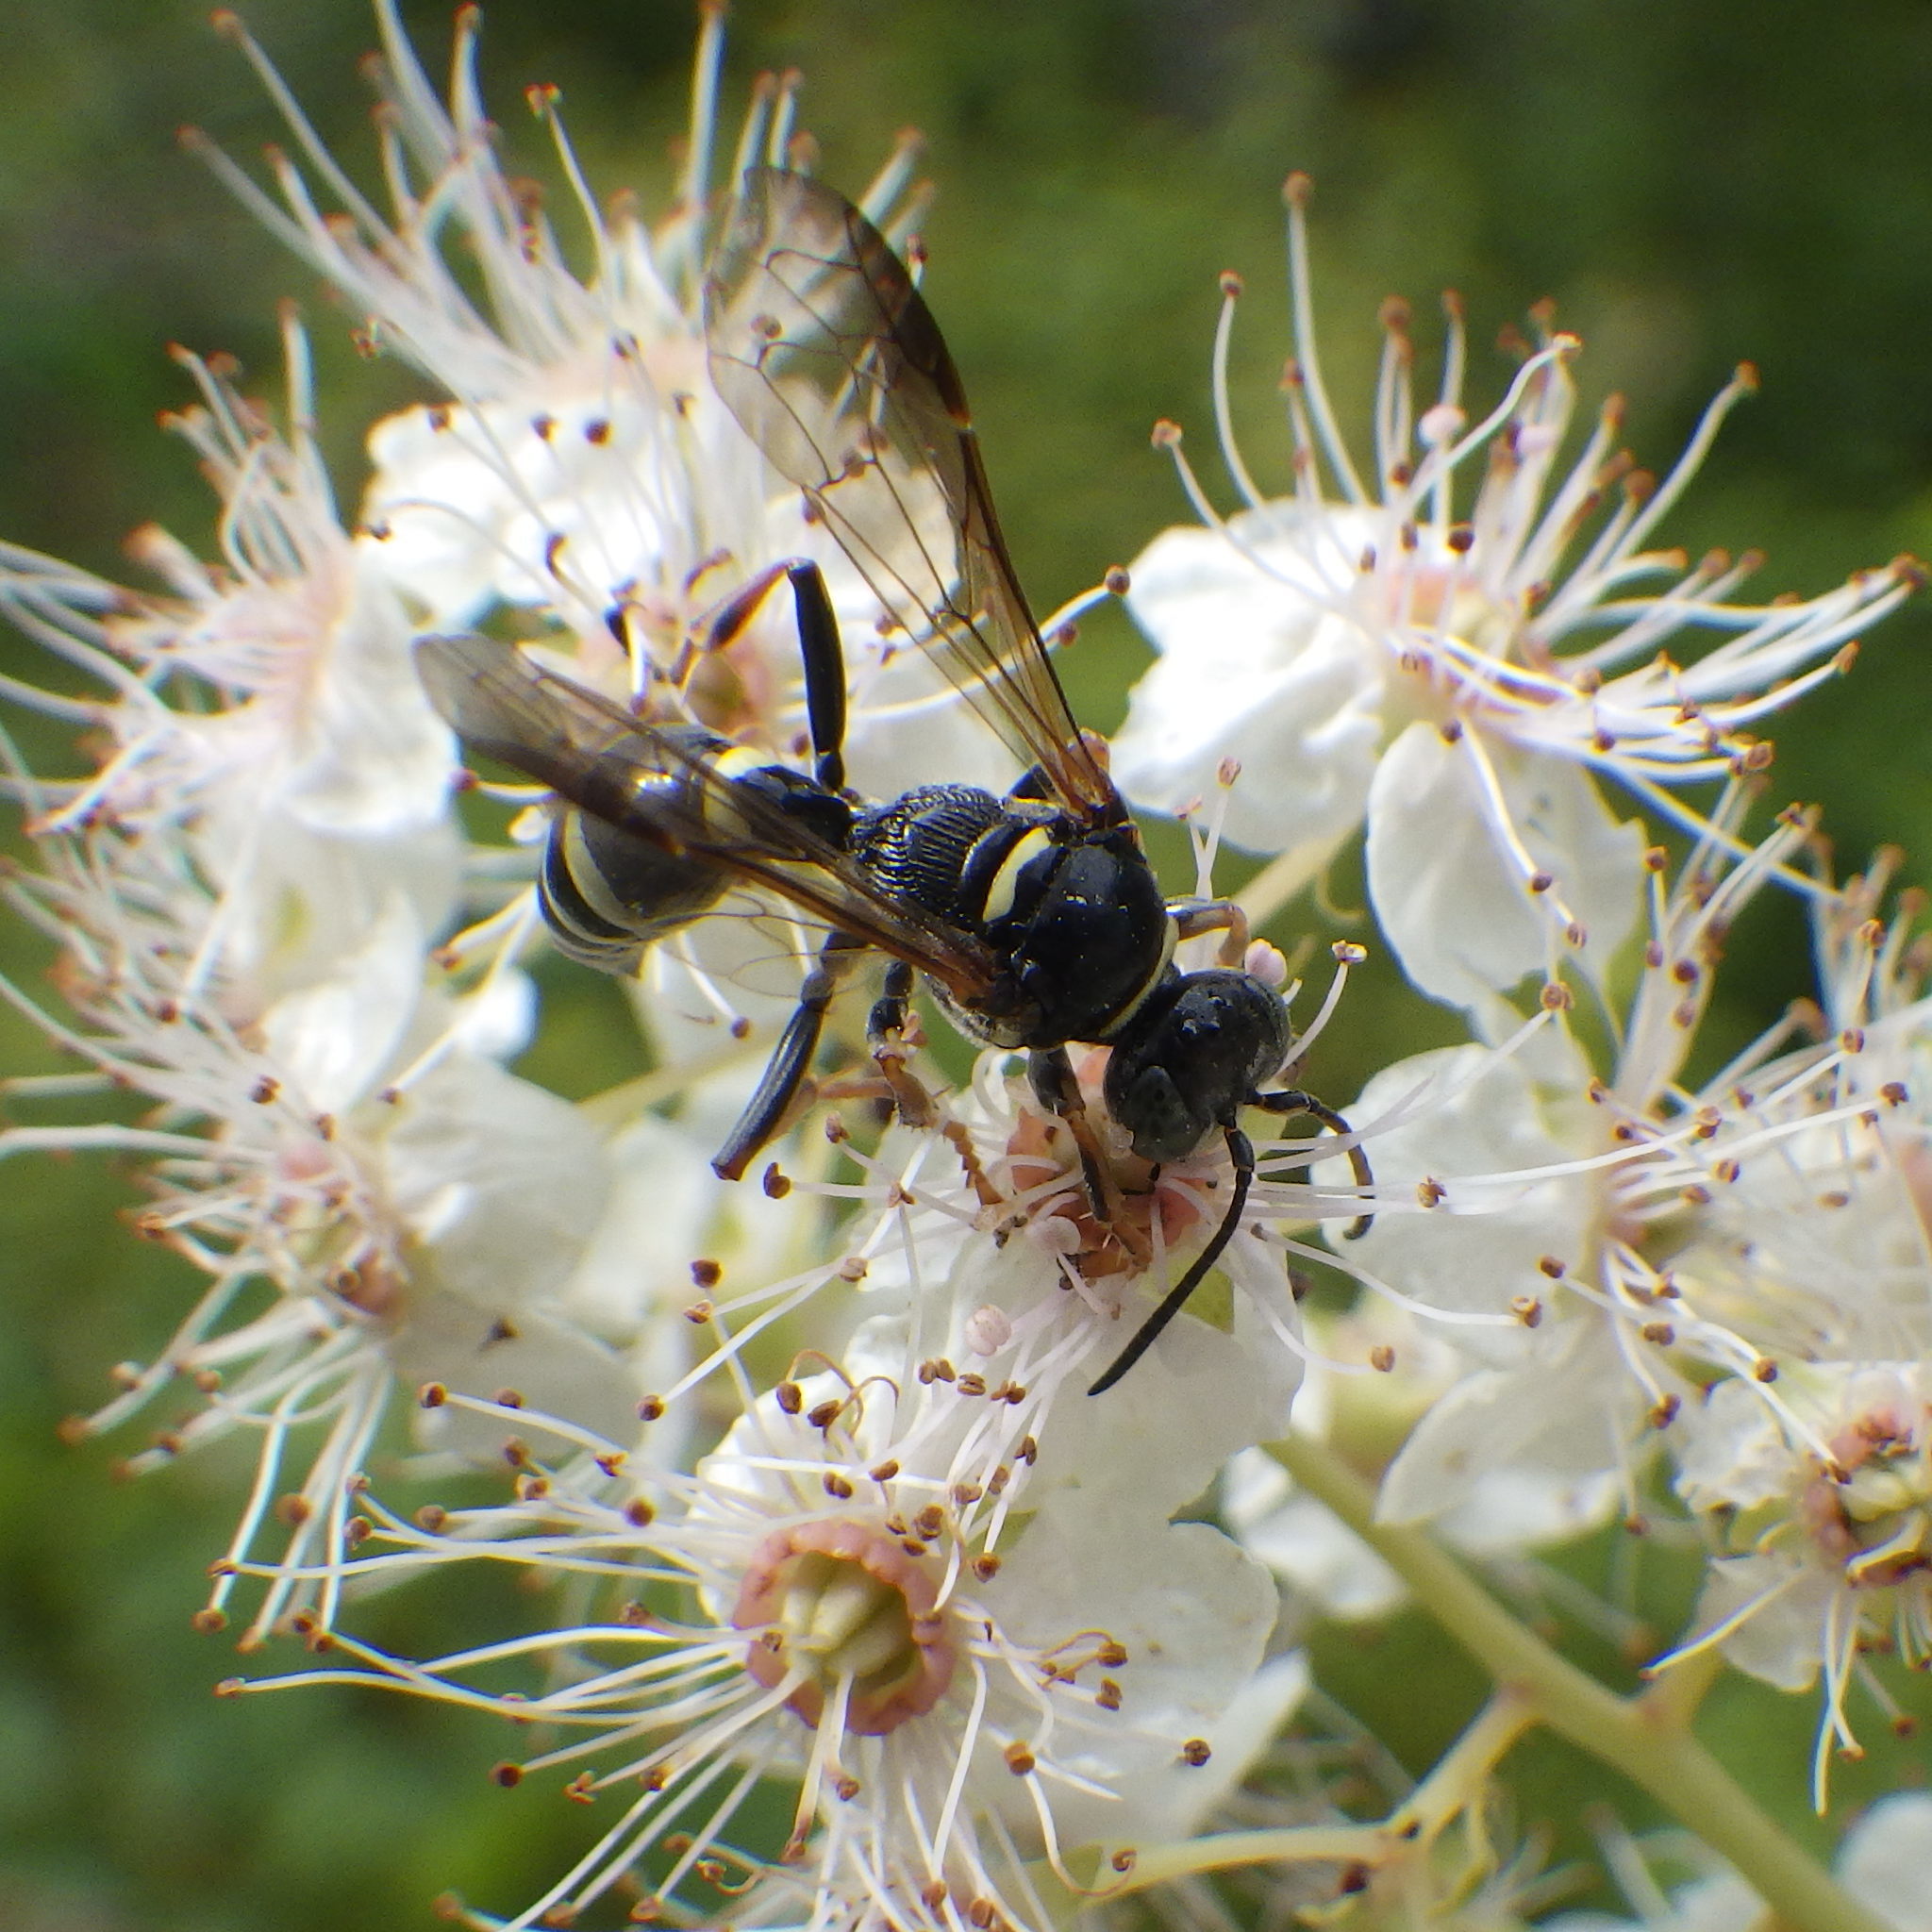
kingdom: Animalia
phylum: Arthropoda
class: Insecta
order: Hymenoptera
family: Crabronidae
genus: Gorytes
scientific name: Gorytes atricornis
